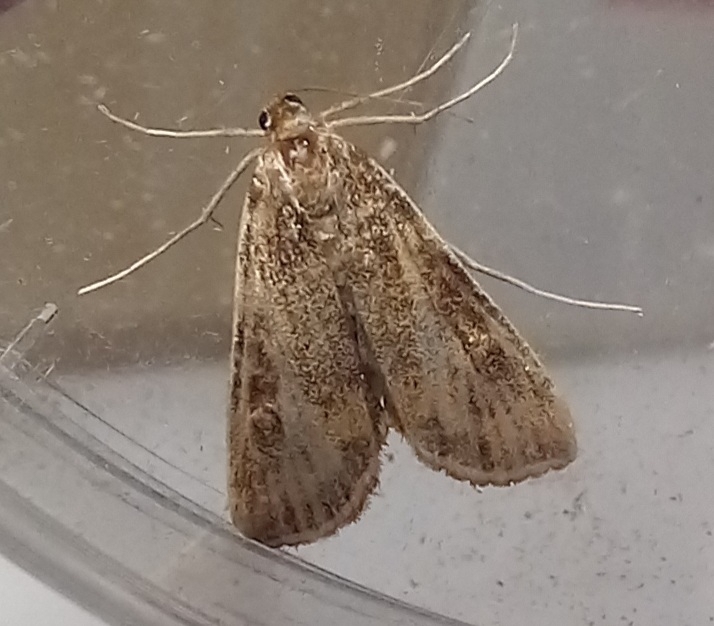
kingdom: Animalia
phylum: Arthropoda
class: Insecta
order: Lepidoptera
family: Crambidae
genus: Stenia
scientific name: Stenia Arnia nervosalis
